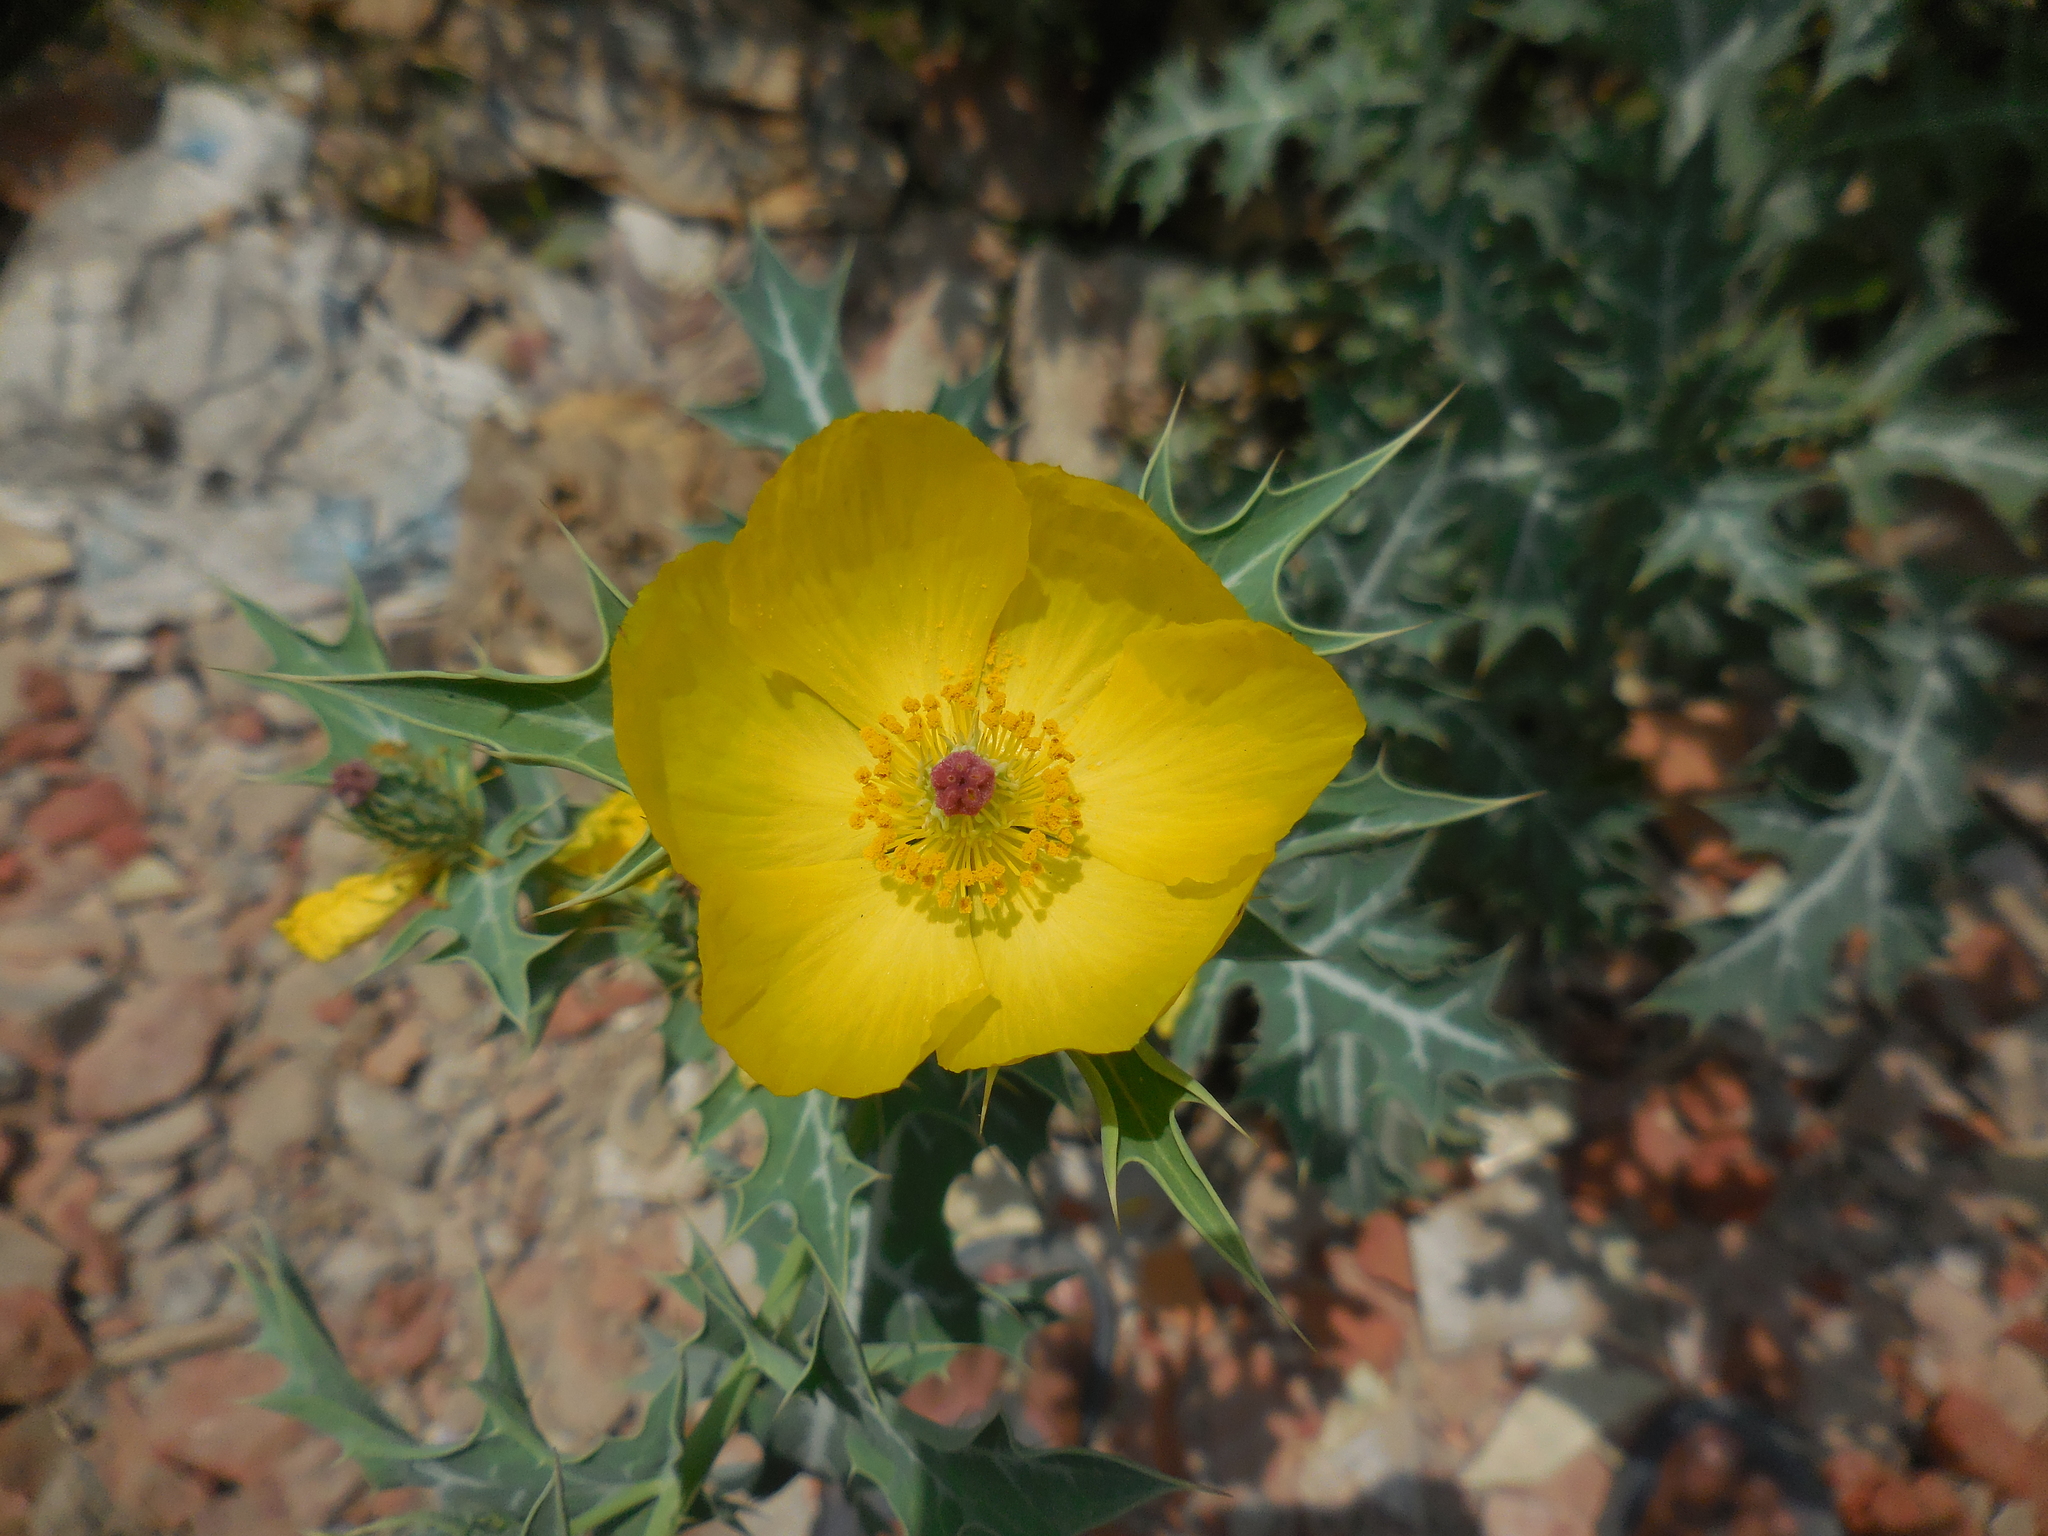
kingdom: Plantae
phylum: Tracheophyta
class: Magnoliopsida
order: Ranunculales
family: Papaveraceae
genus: Argemone
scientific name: Argemone mexicana
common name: Mexican poppy
